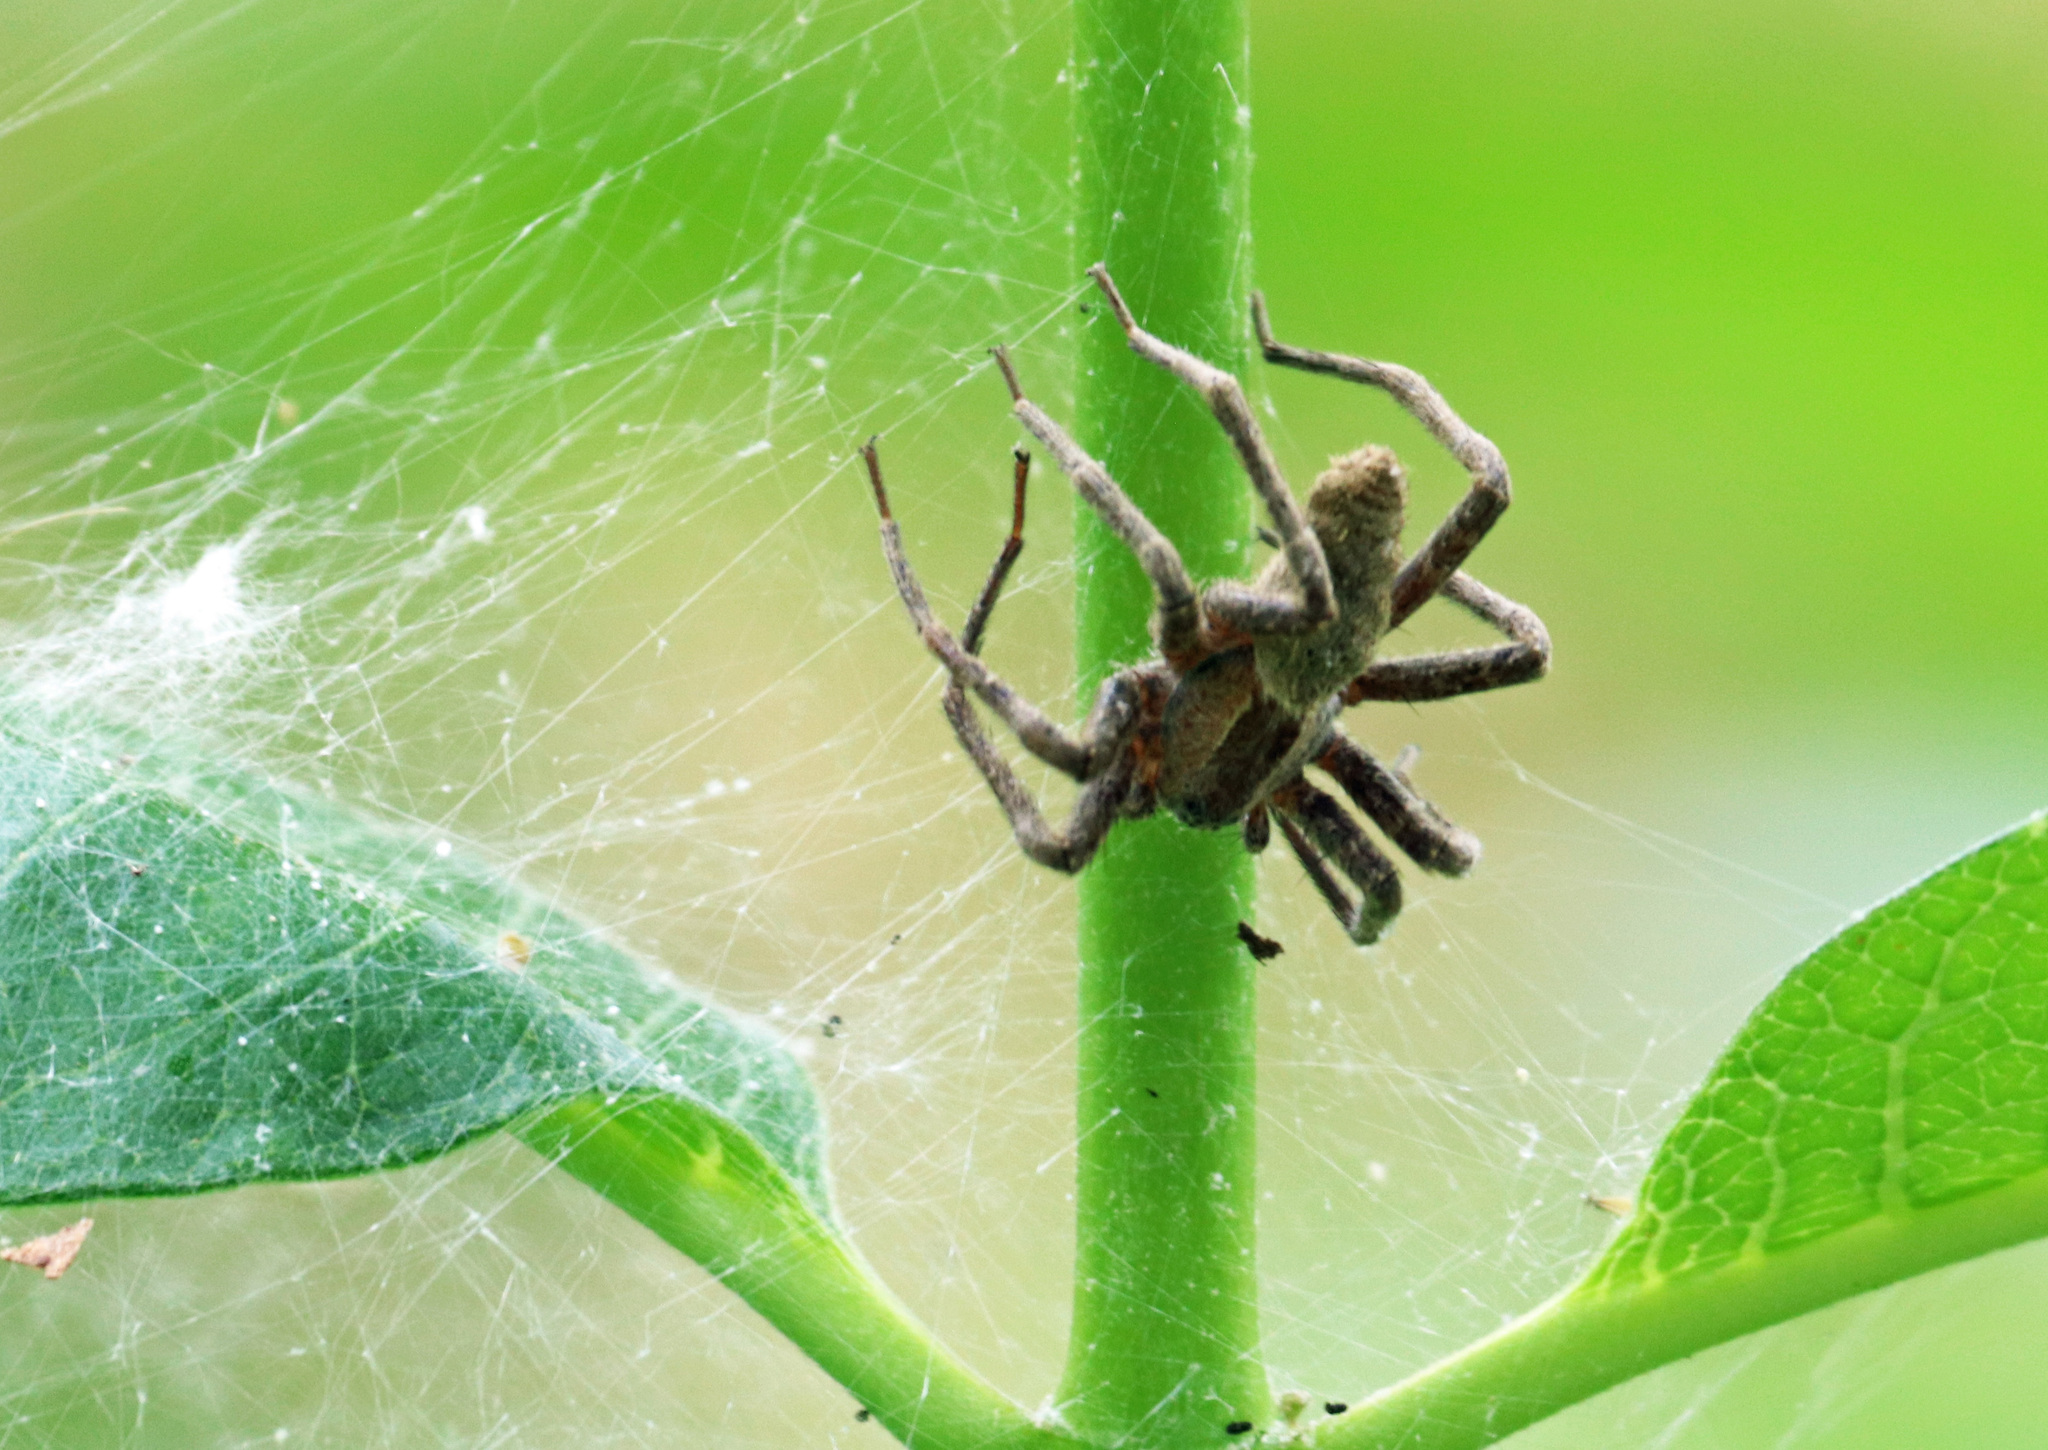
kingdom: Animalia
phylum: Arthropoda
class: Arachnida
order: Araneae
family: Pisauridae
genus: Pisaurina
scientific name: Pisaurina mira
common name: American nursery web spider
